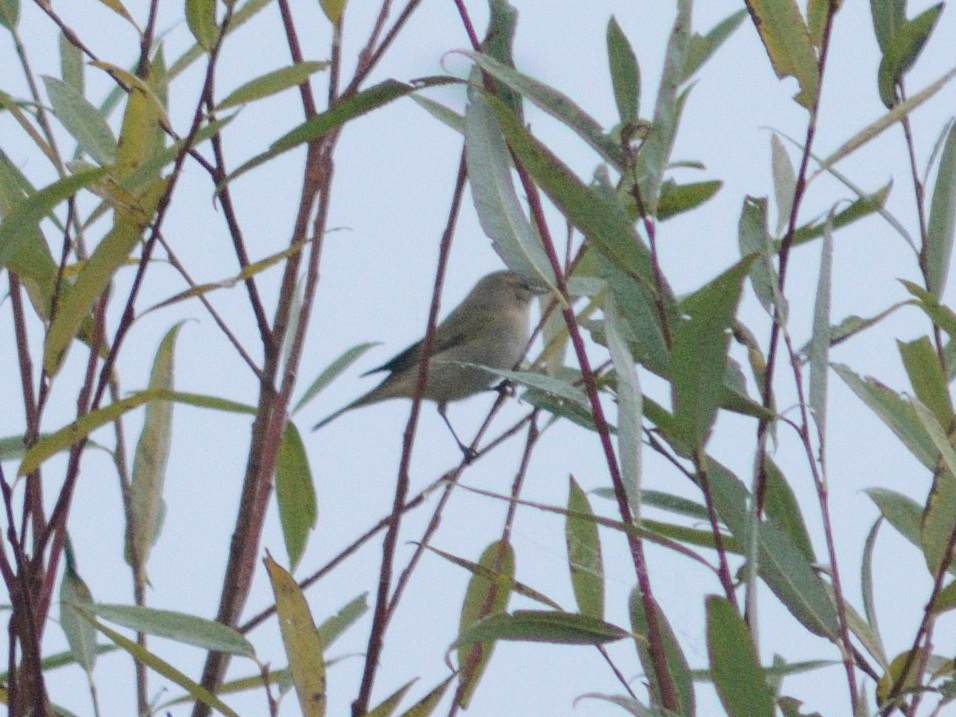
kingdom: Animalia
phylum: Chordata
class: Aves
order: Passeriformes
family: Phylloscopidae
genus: Phylloscopus
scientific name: Phylloscopus collybita
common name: Common chiffchaff
